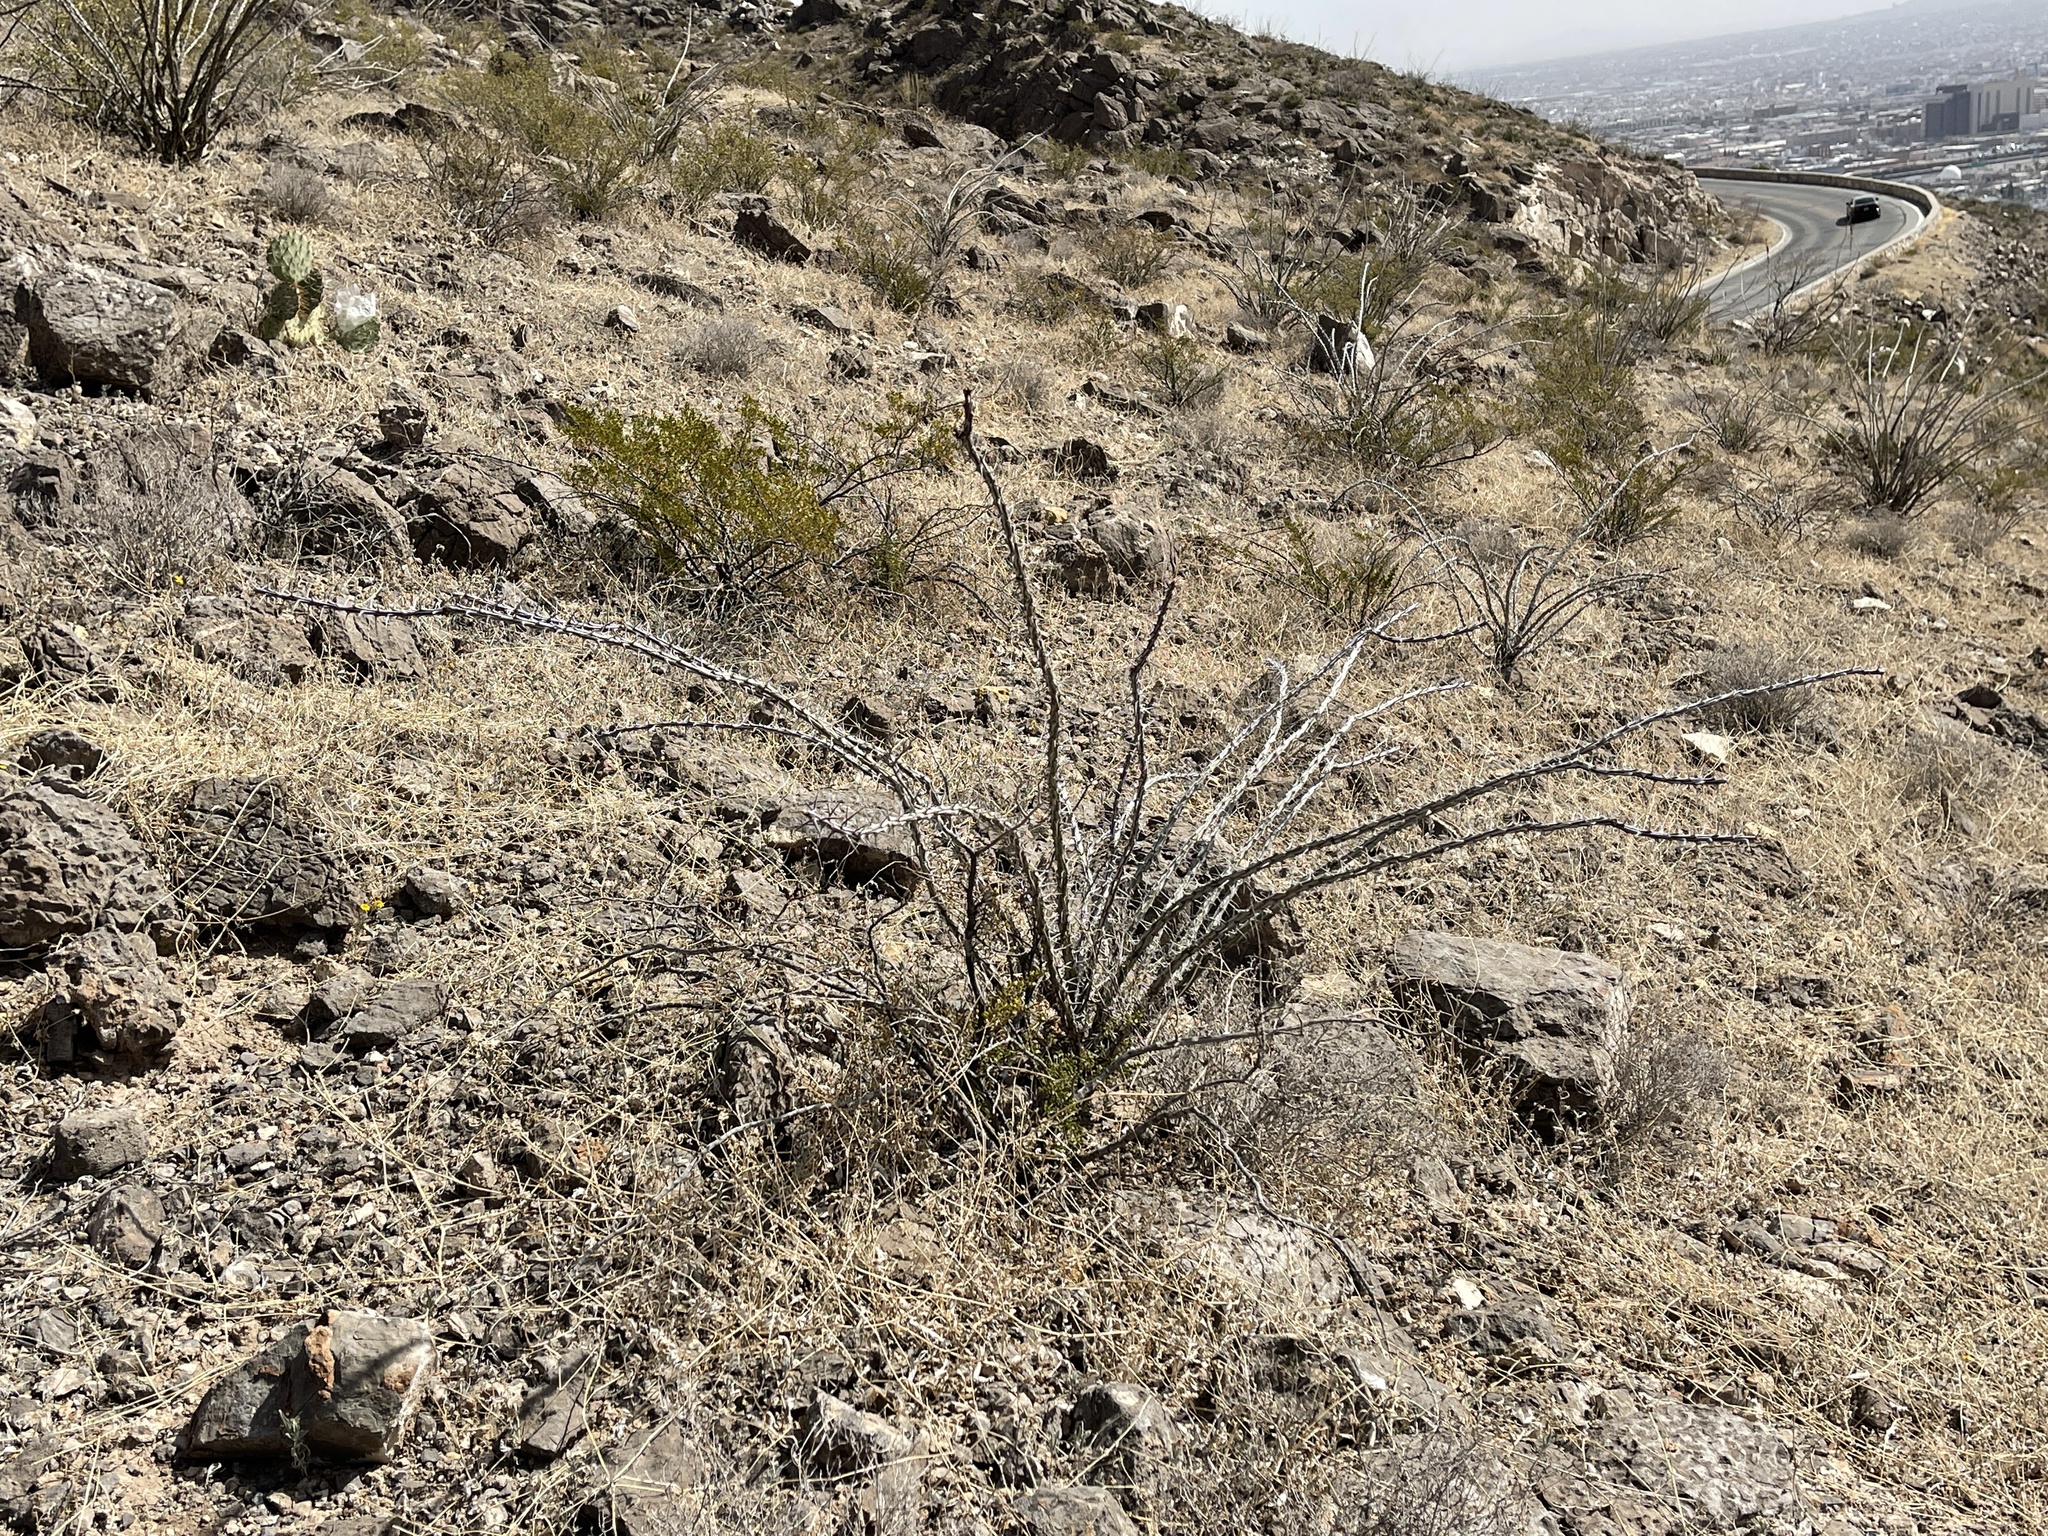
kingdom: Plantae
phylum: Tracheophyta
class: Magnoliopsida
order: Ericales
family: Fouquieriaceae
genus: Fouquieria
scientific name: Fouquieria splendens
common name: Vine-cactus
